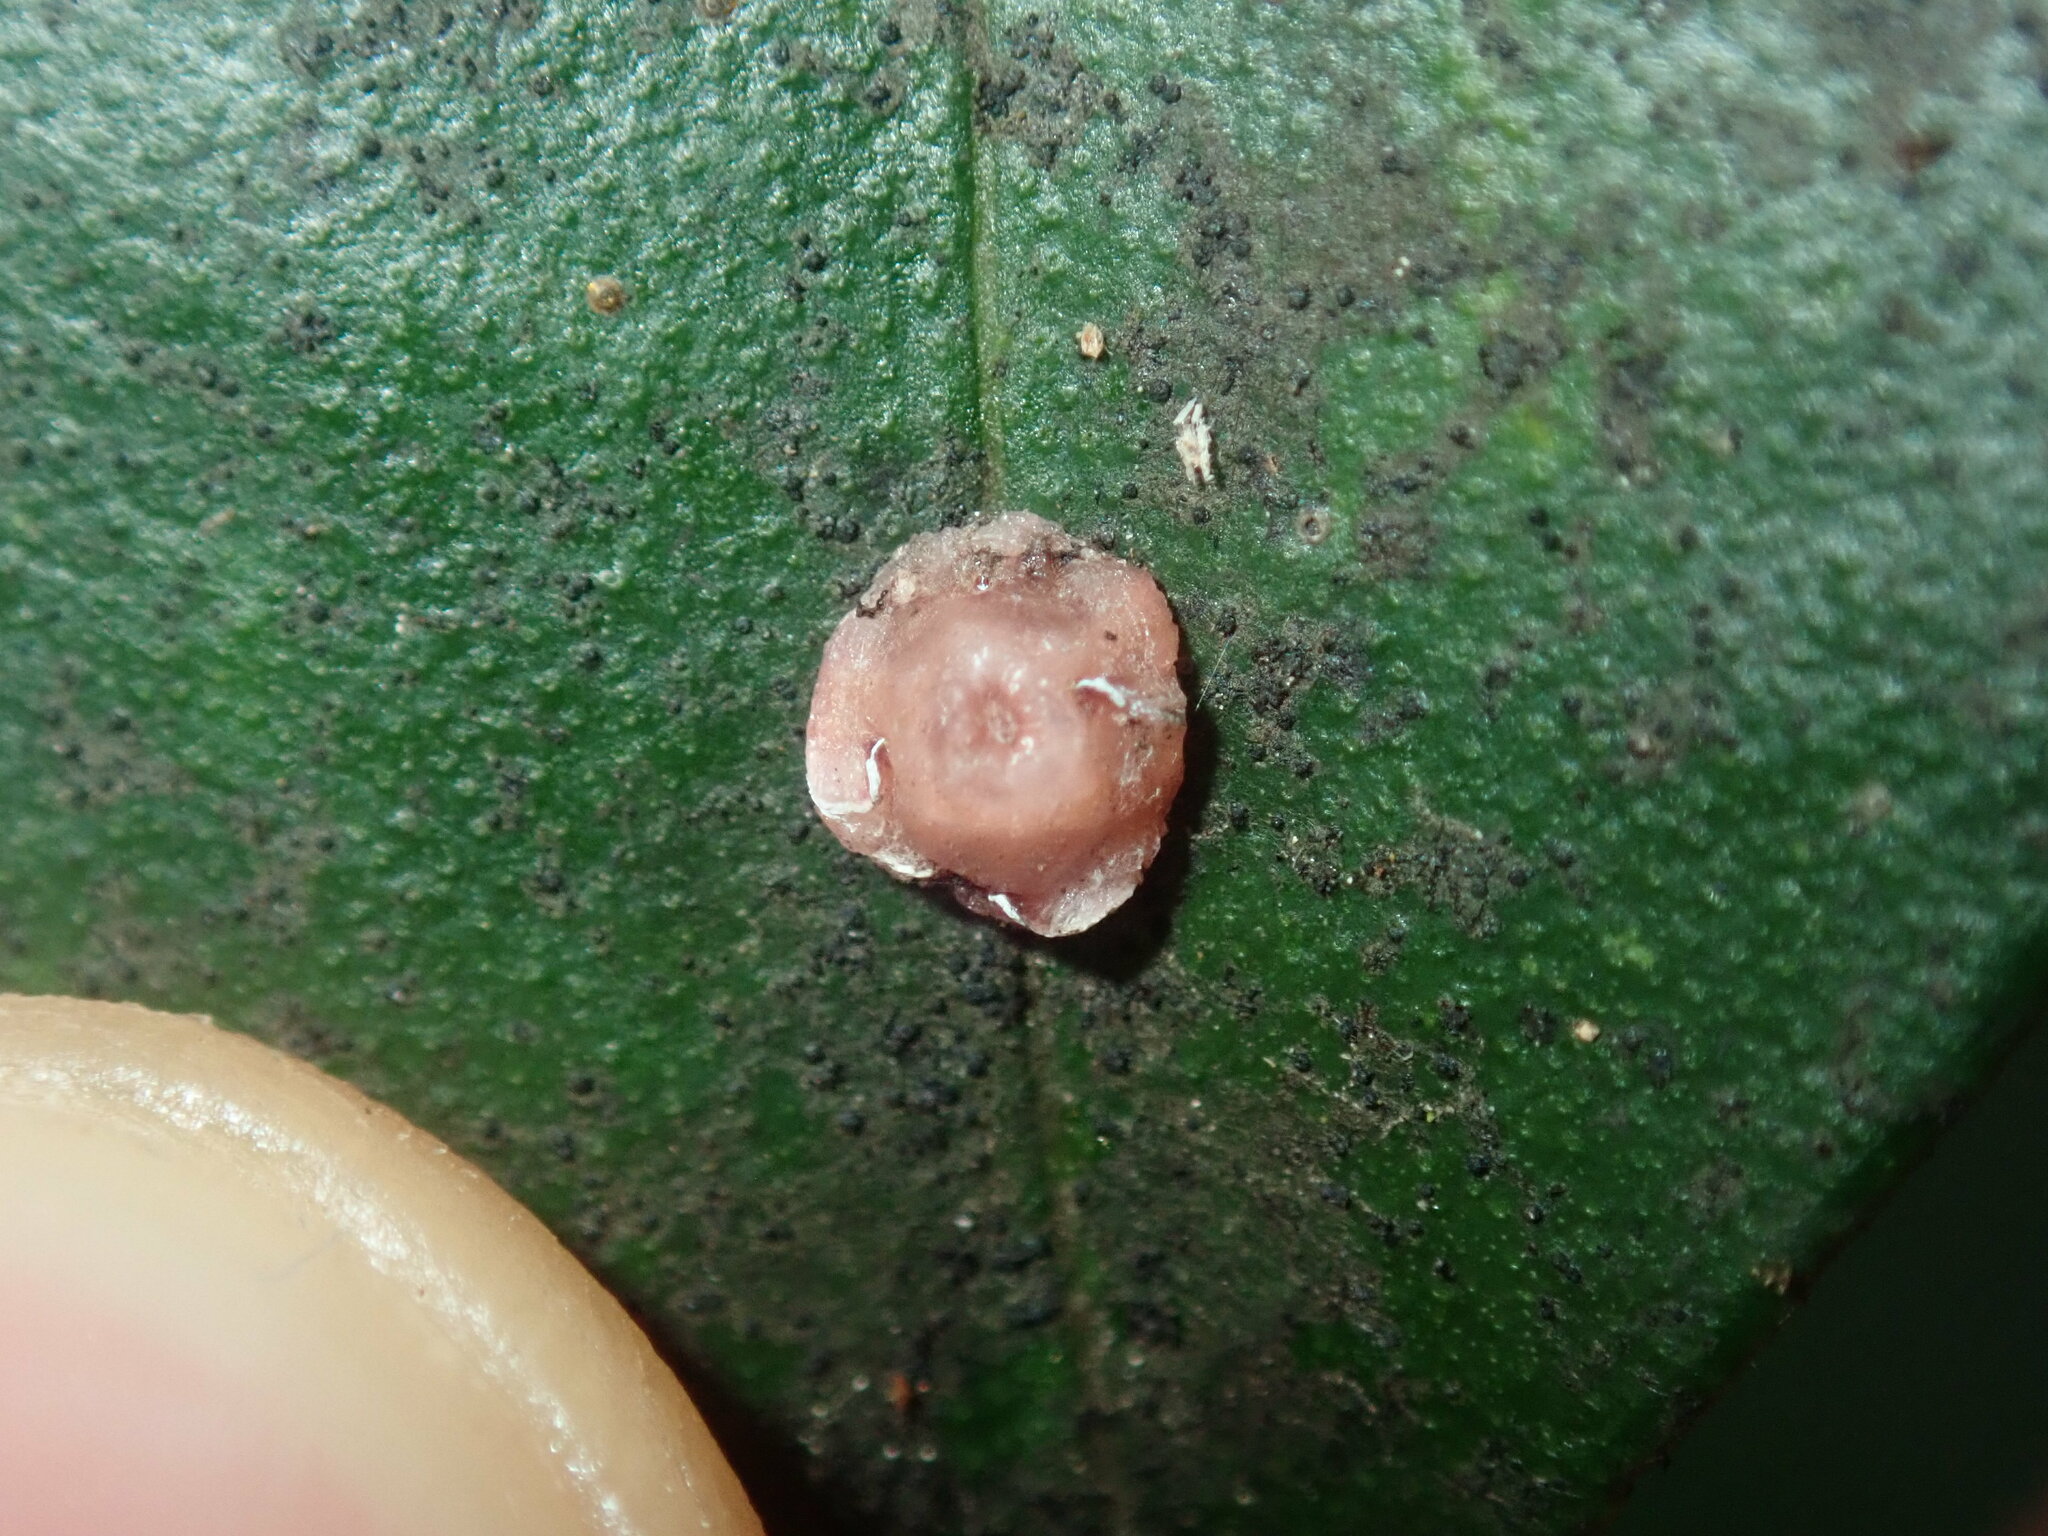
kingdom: Animalia
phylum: Arthropoda
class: Insecta
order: Hemiptera
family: Coccidae
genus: Ceroplastes
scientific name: Ceroplastes rubens
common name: Pink wax scale
